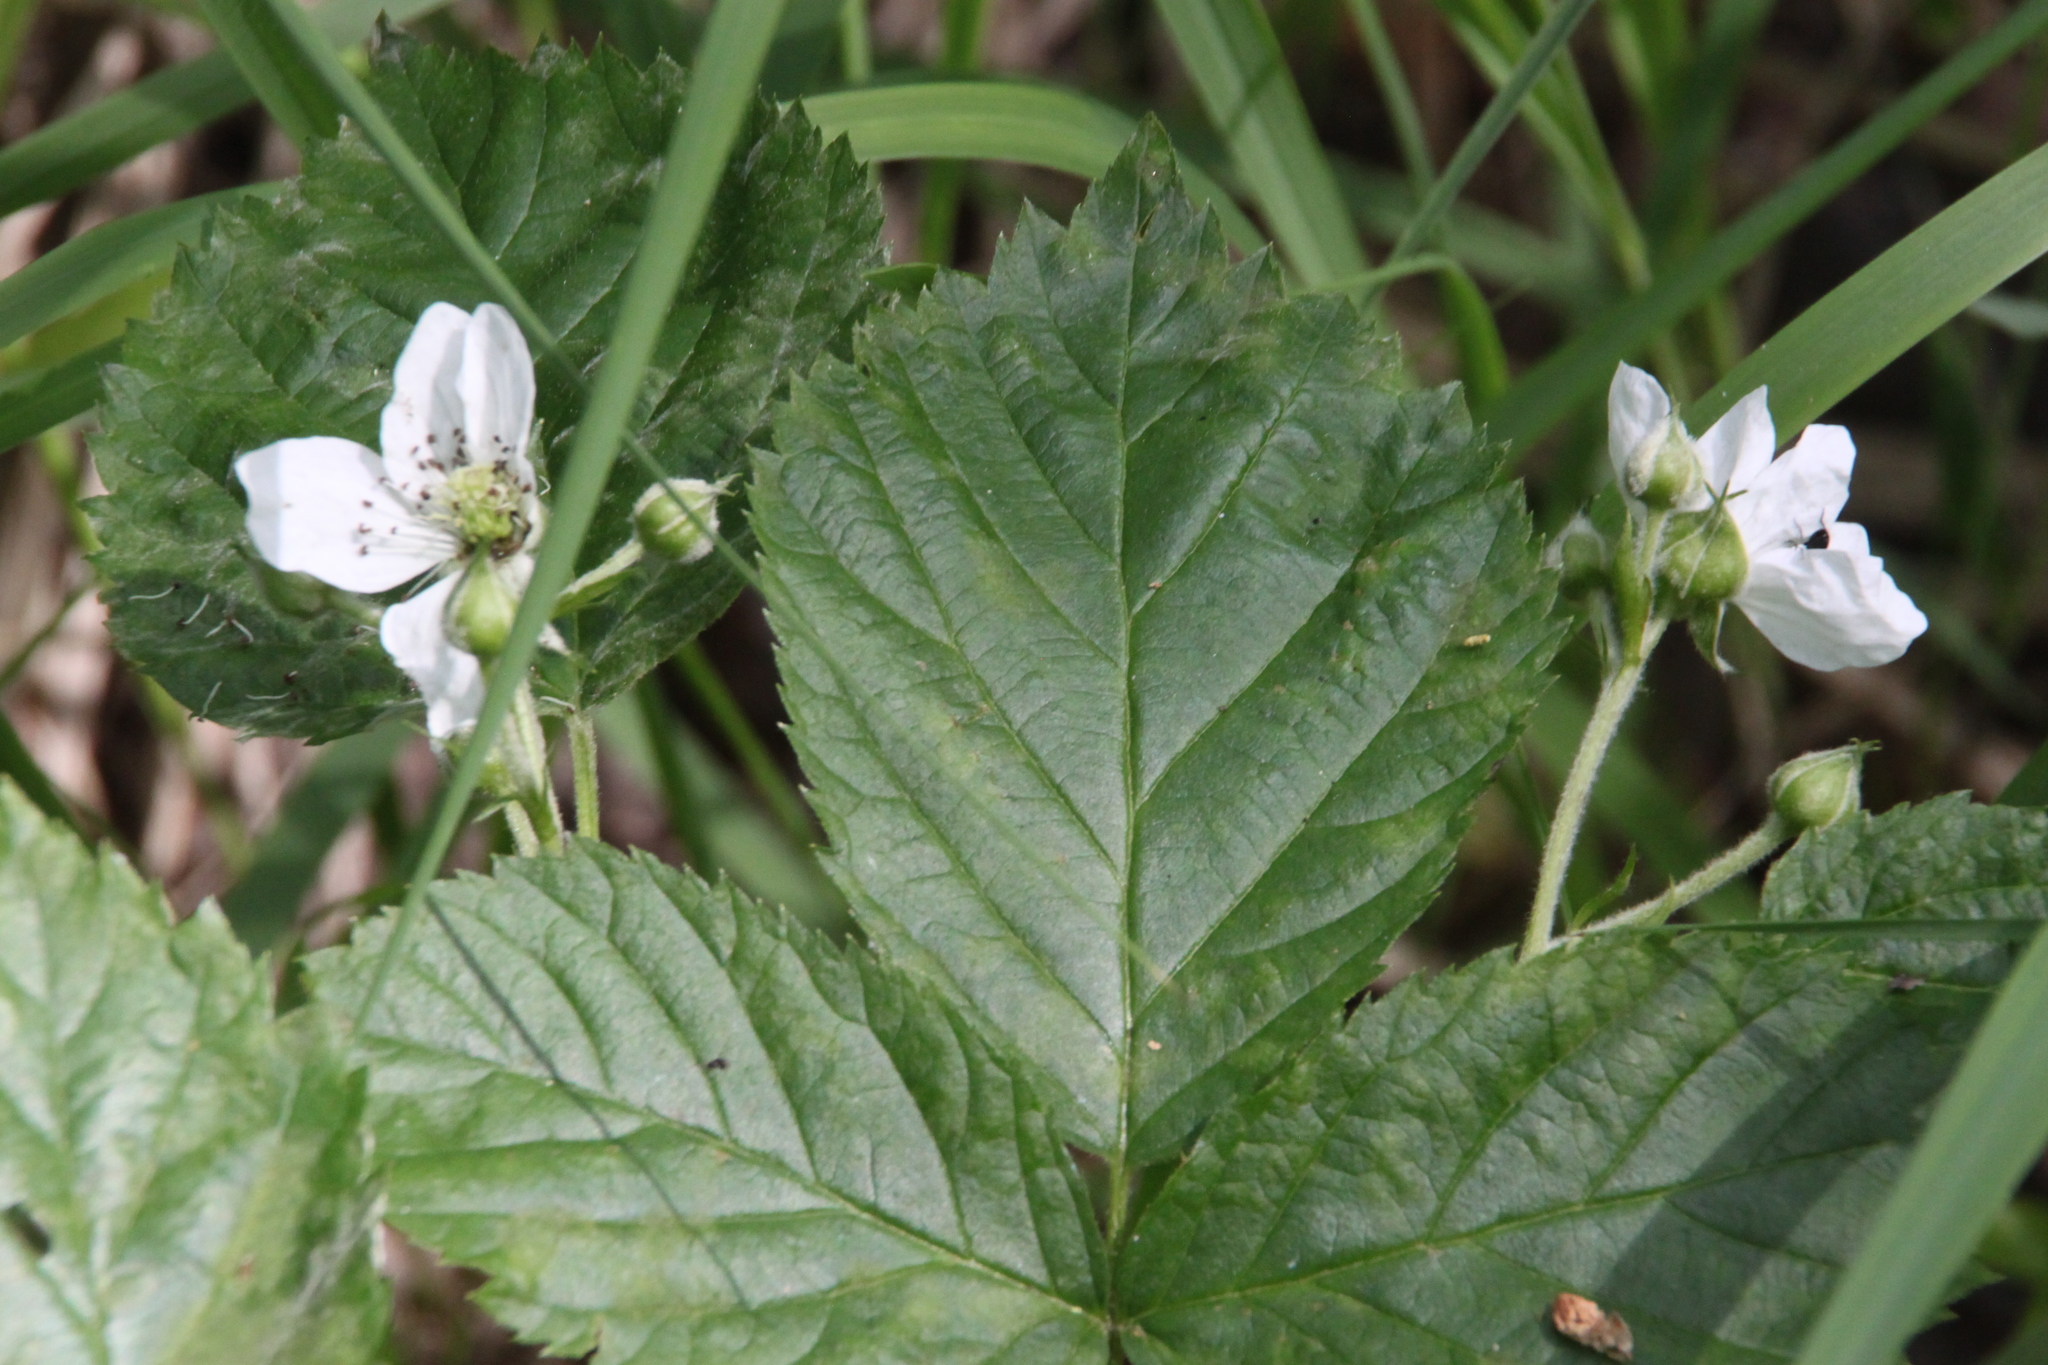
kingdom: Plantae
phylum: Tracheophyta
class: Magnoliopsida
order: Rosales
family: Rosaceae
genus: Rubus
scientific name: Rubus polonicus
